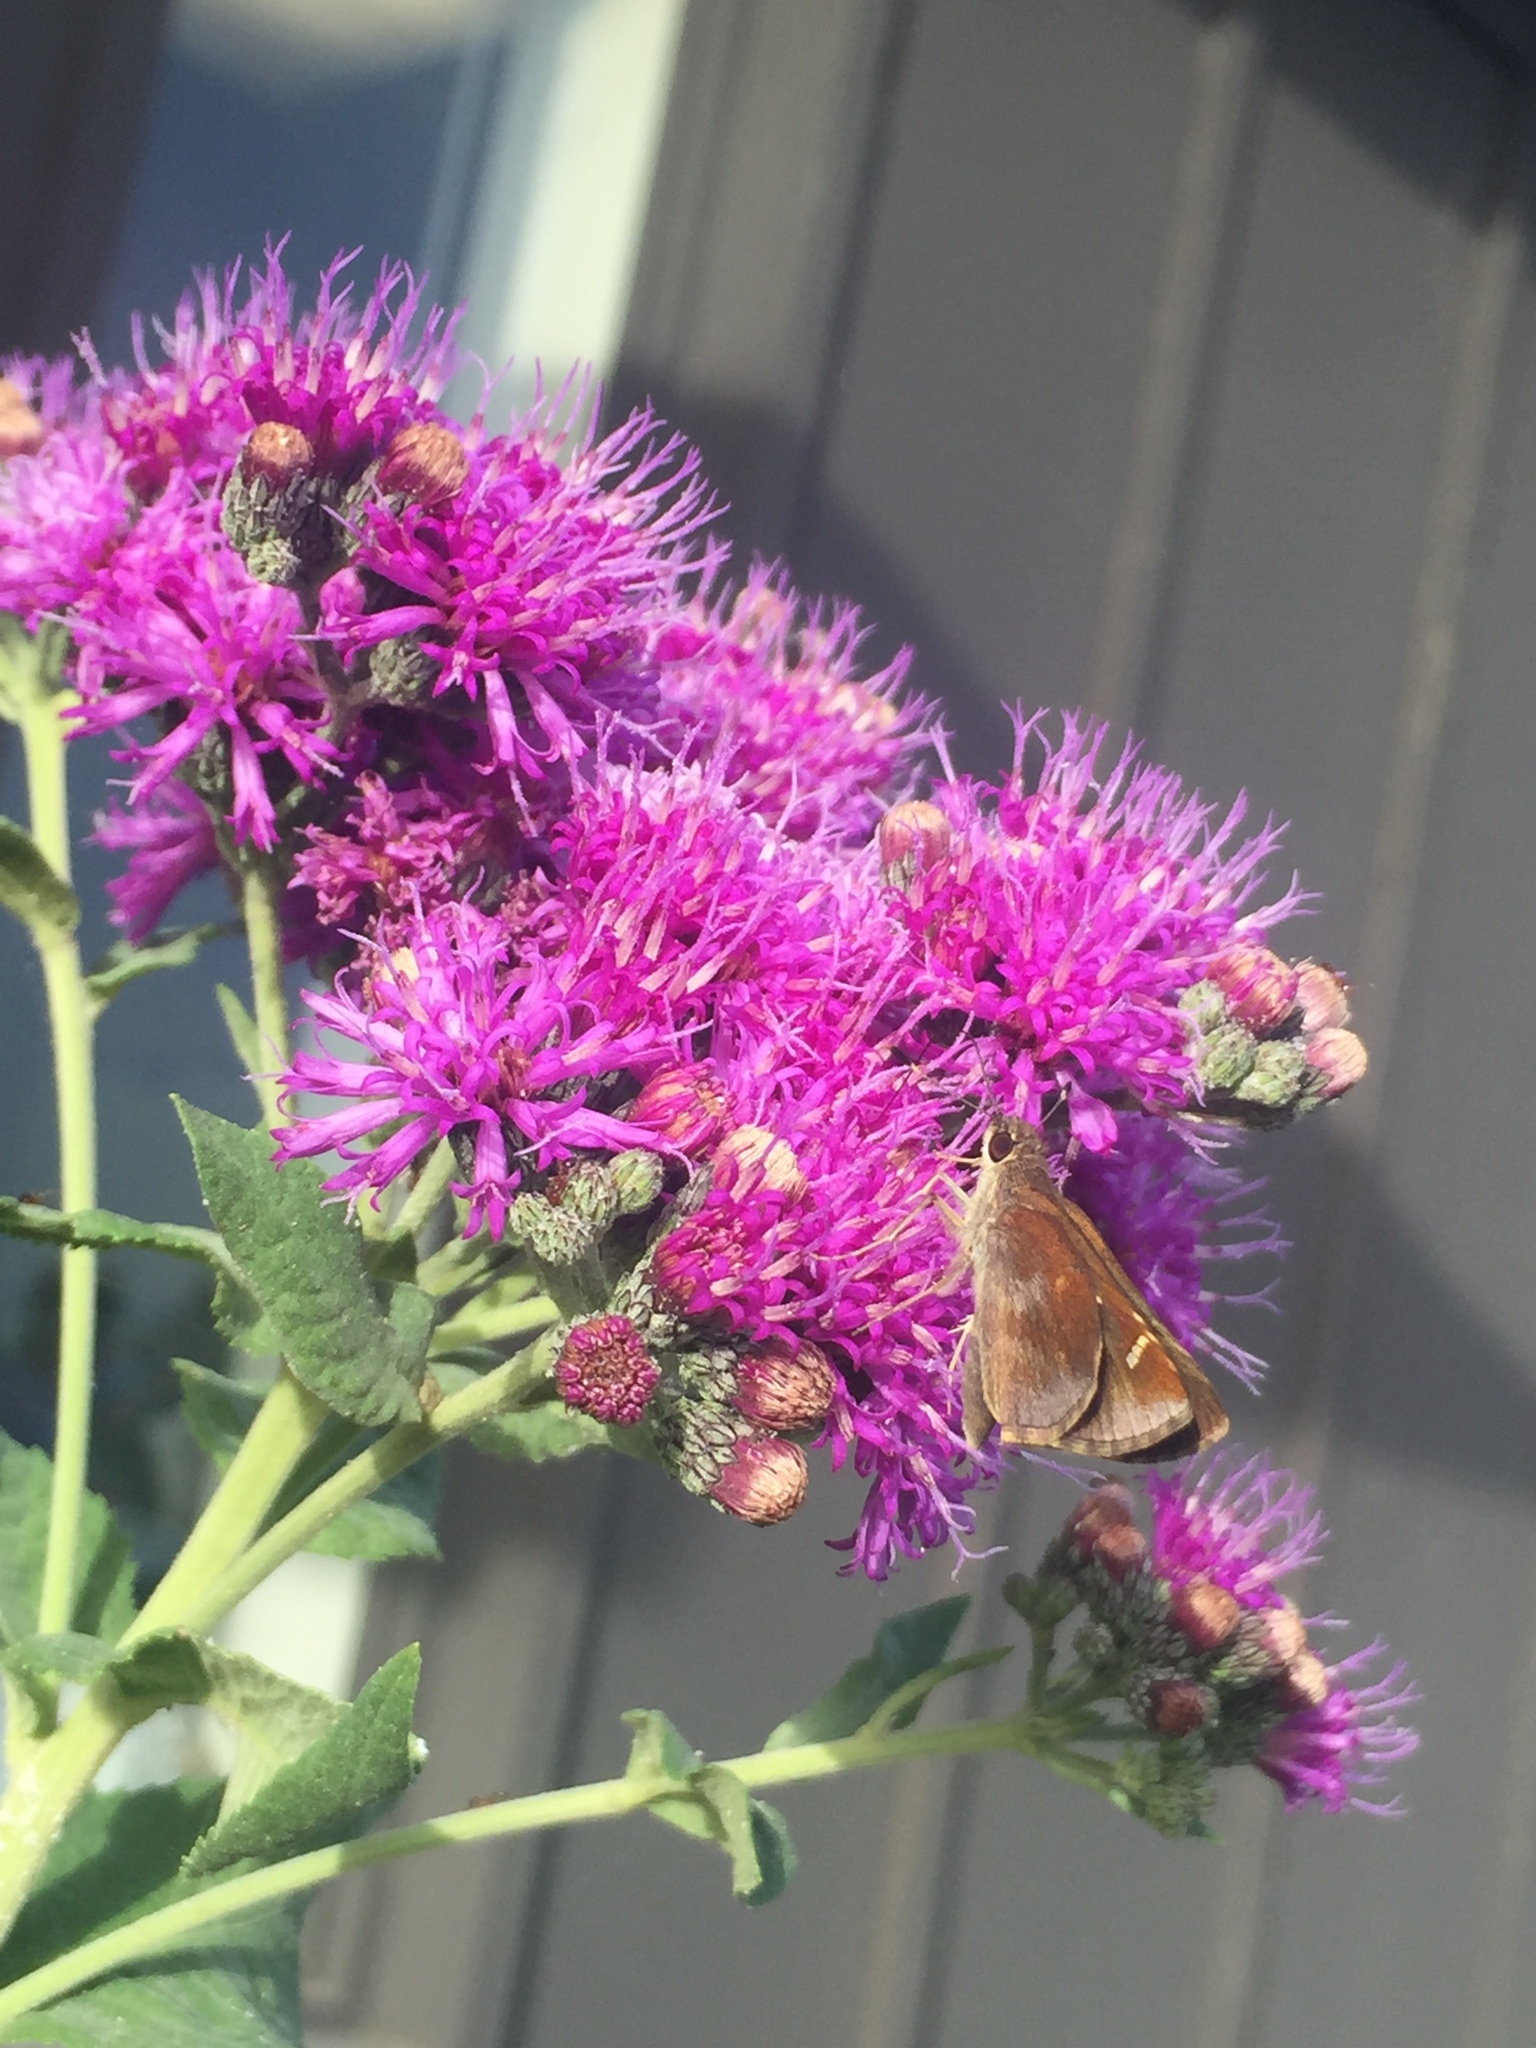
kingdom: Animalia
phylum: Arthropoda
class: Insecta
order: Lepidoptera
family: Hesperiidae
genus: Lerema
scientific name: Lerema accius
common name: Clouded skipper
